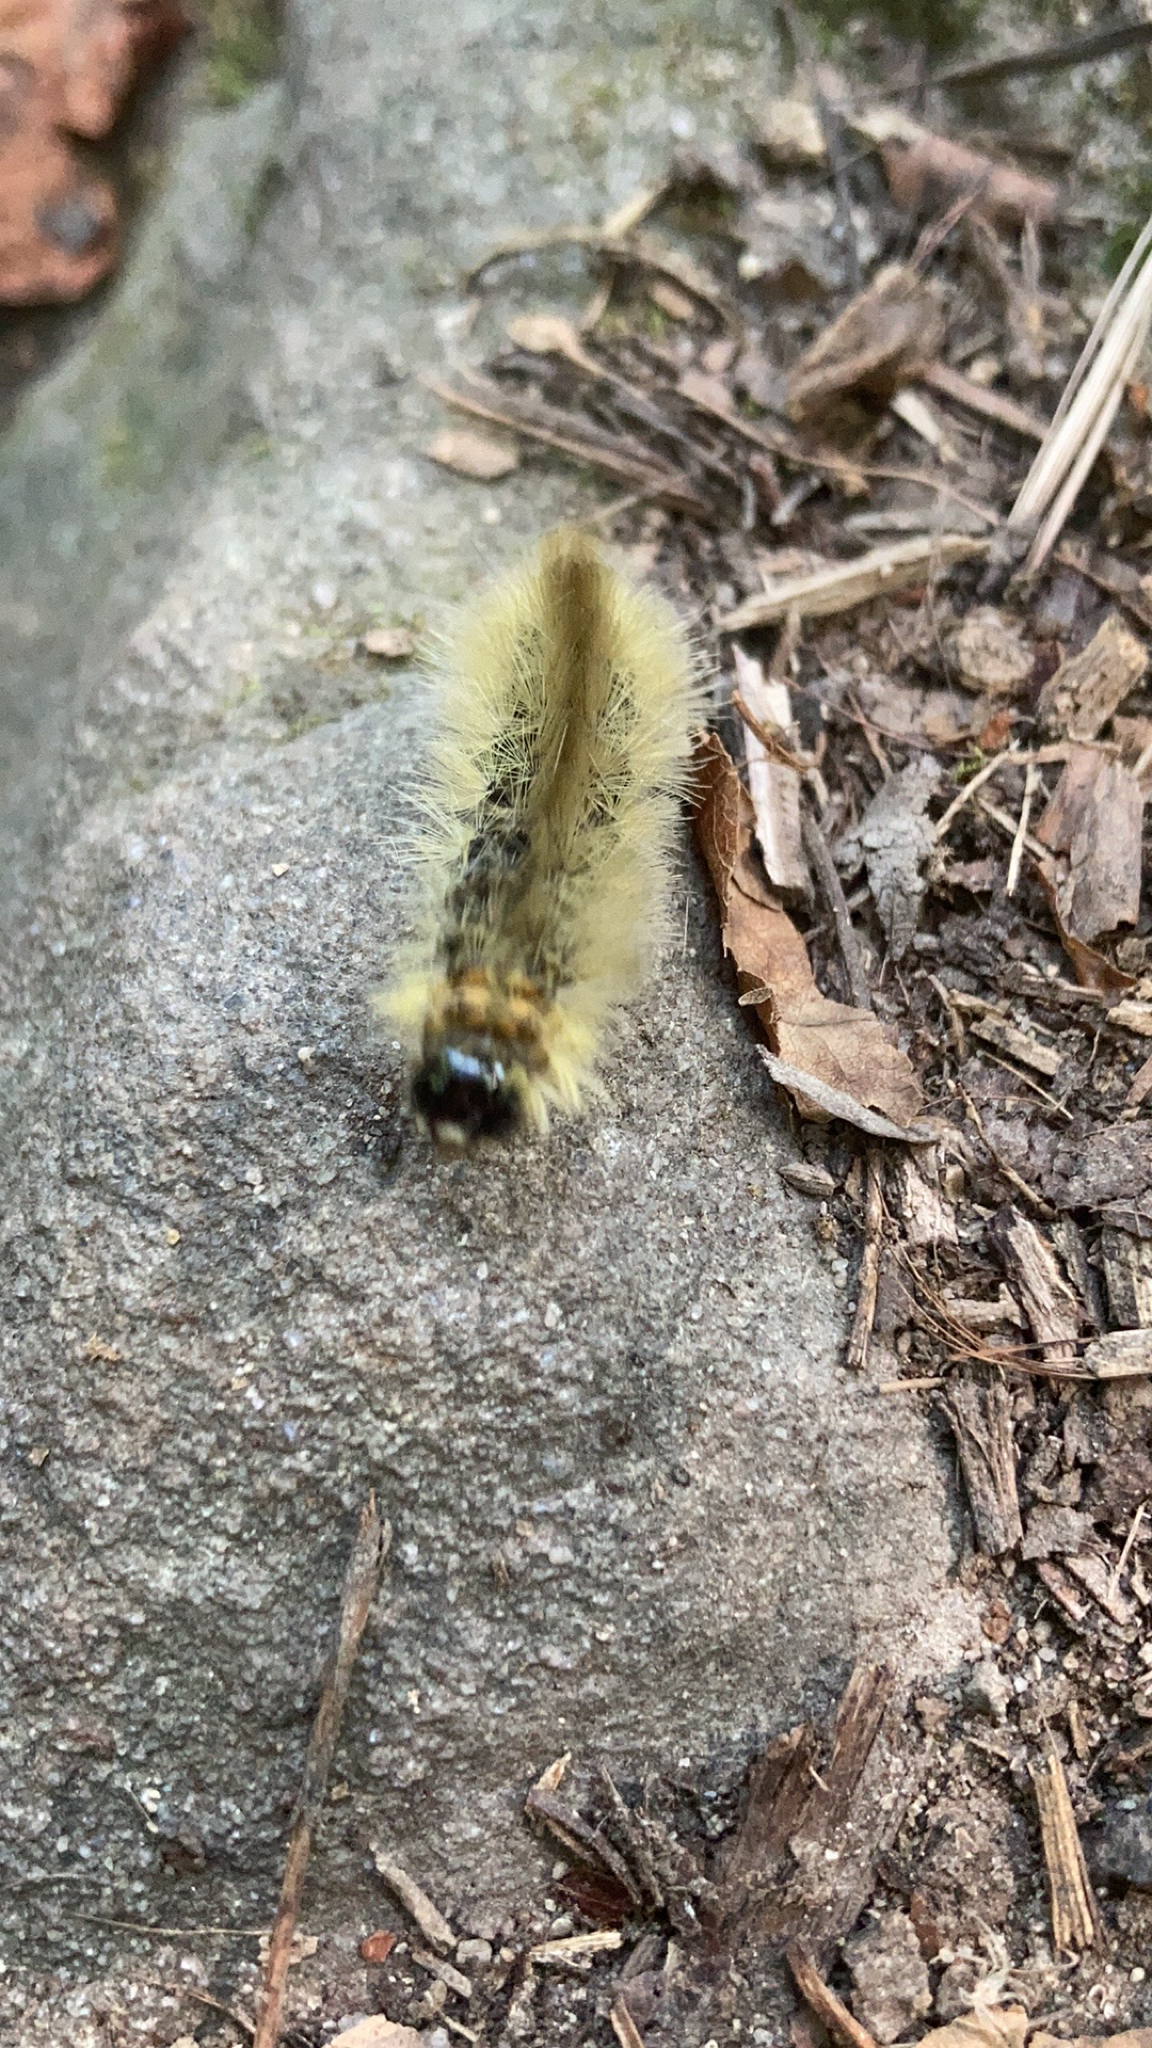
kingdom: Animalia
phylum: Arthropoda
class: Insecta
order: Lepidoptera
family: Erebidae
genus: Halysidota
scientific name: Halysidota tessellaris
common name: Banded tussock moth
